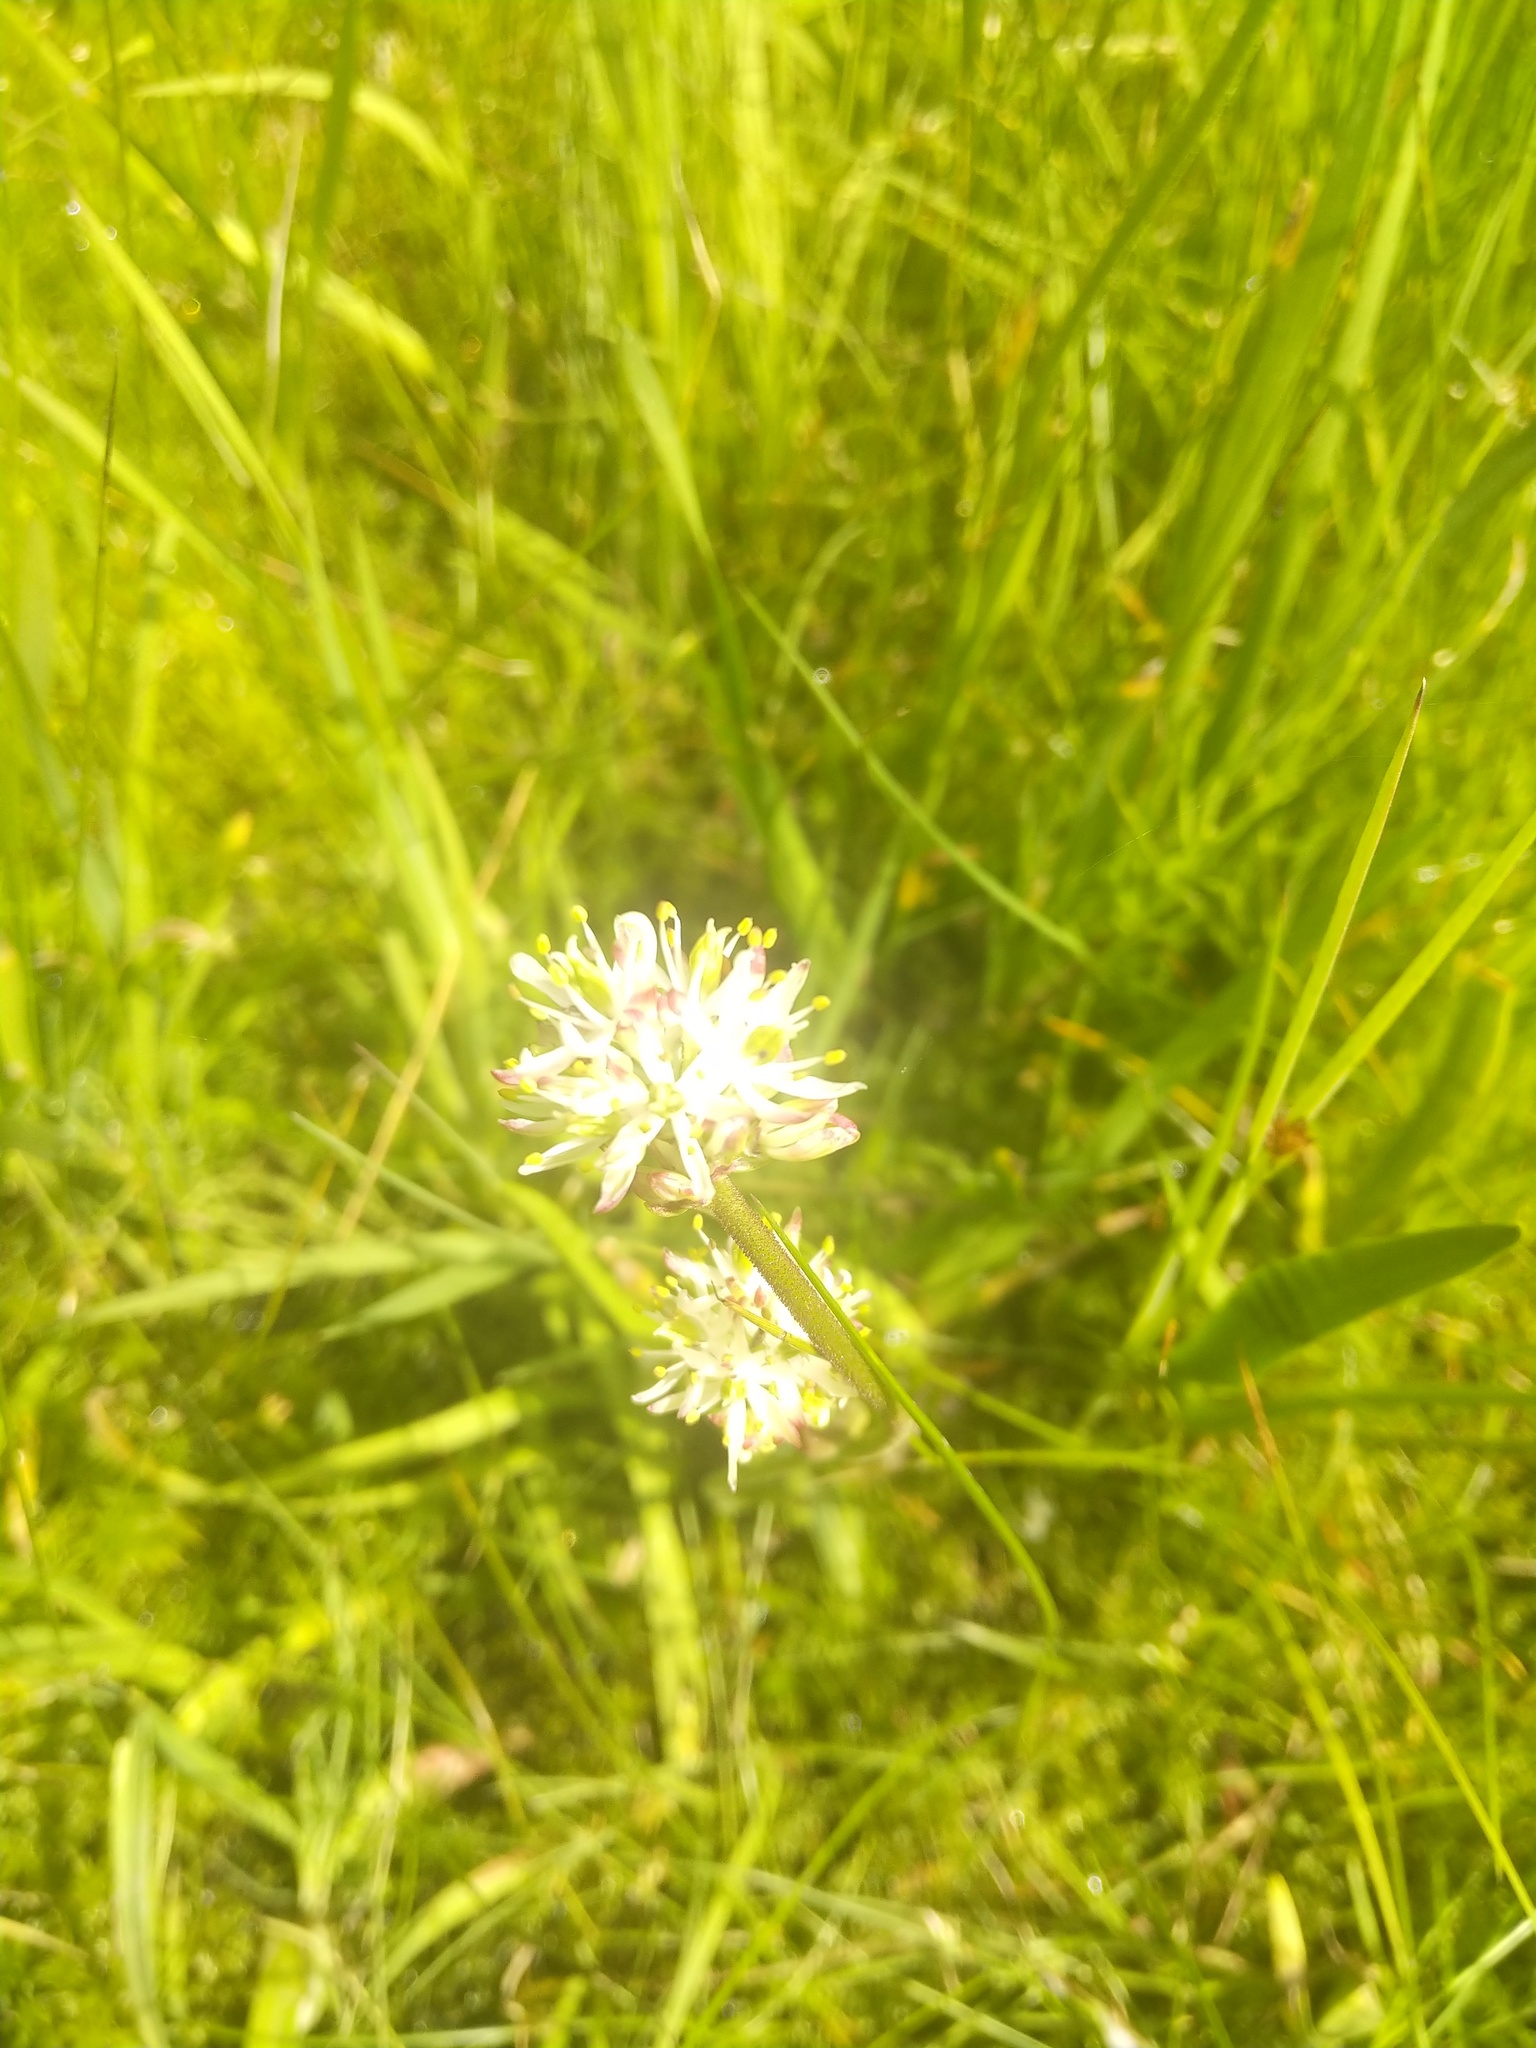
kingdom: Plantae
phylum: Tracheophyta
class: Liliopsida
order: Alismatales
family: Tofieldiaceae
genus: Triantha
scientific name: Triantha occidentalis
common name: Western false asphodel
